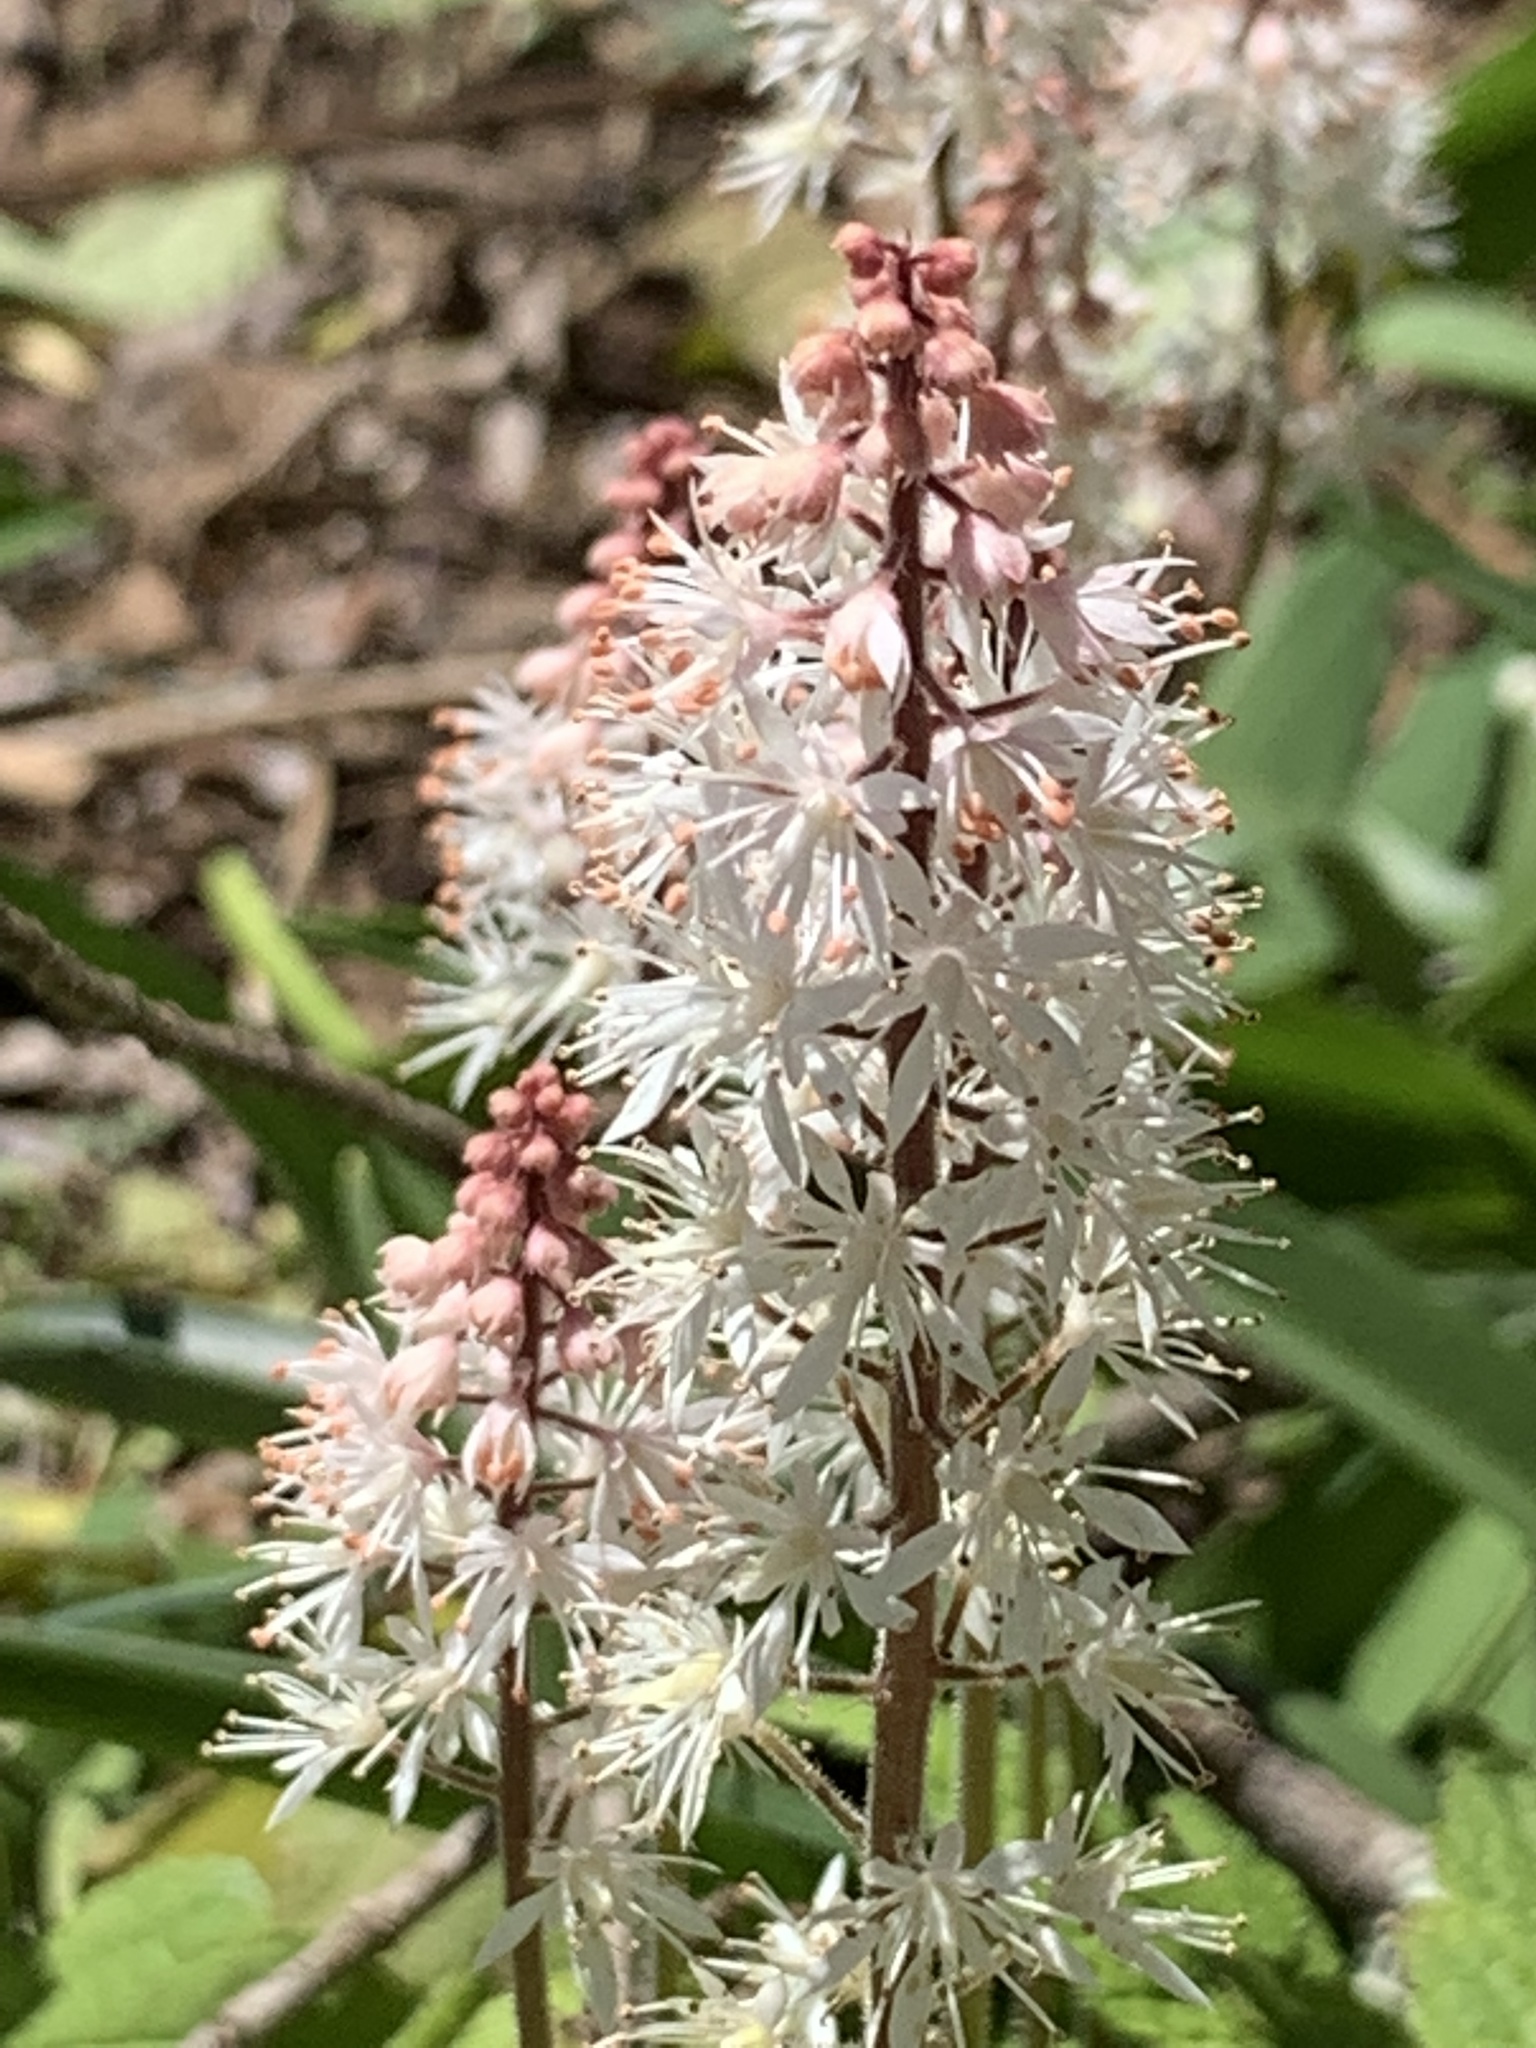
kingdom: Plantae
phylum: Tracheophyta
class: Magnoliopsida
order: Saxifragales
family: Saxifragaceae
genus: Tiarella
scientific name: Tiarella stolonifera
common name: Stoloniferous foamflower
